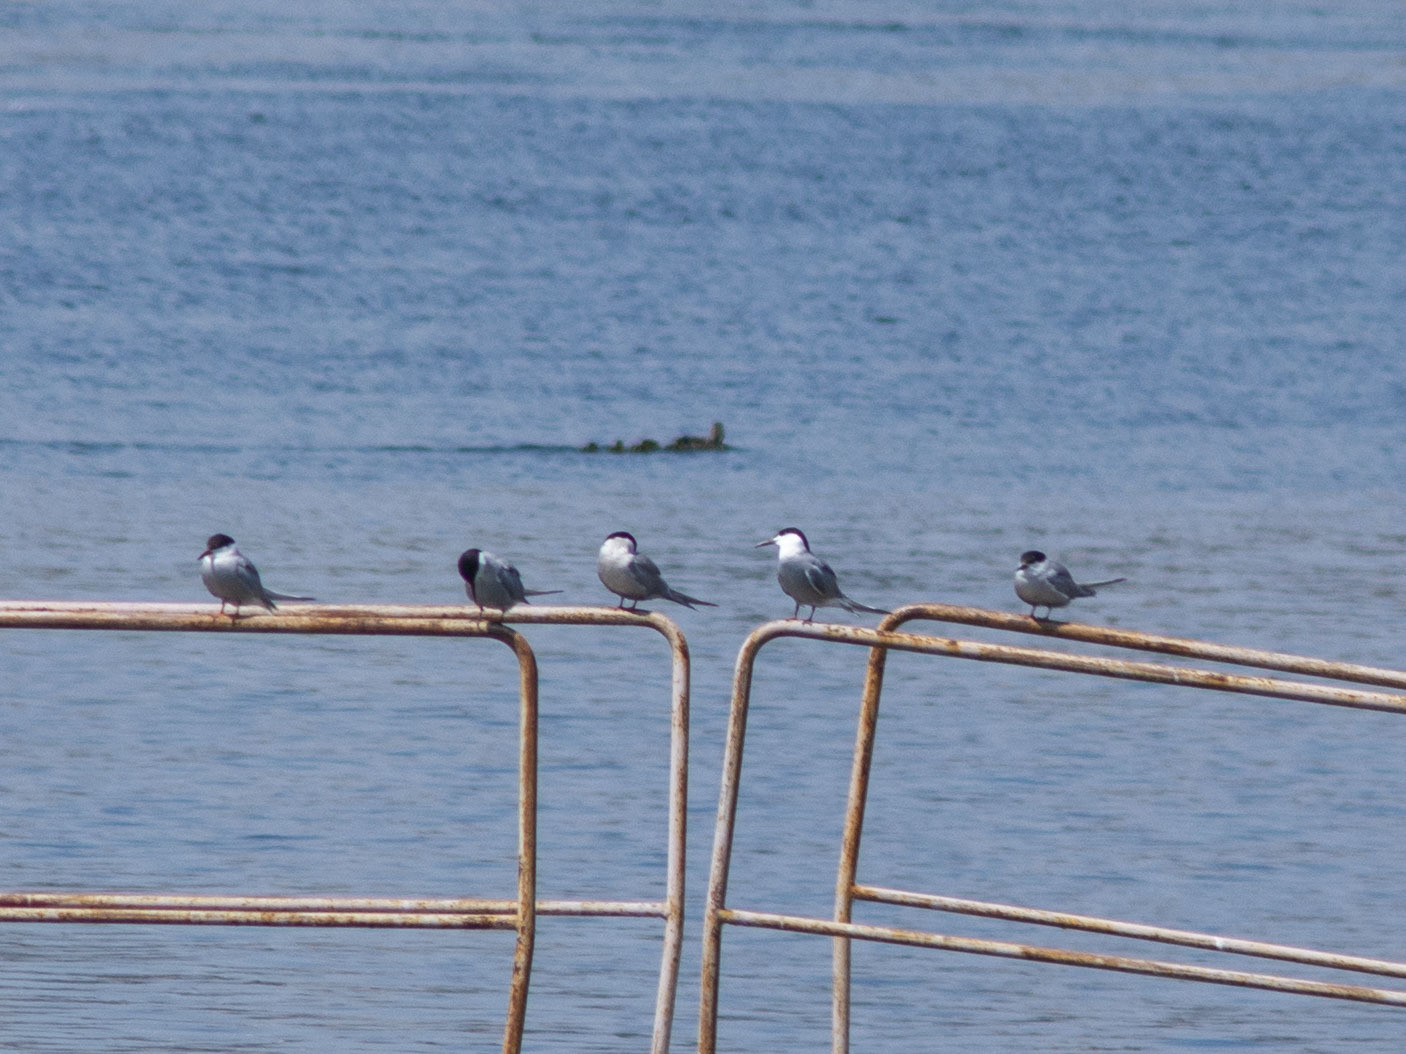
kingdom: Animalia
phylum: Chordata
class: Aves
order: Charadriiformes
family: Laridae
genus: Sterna
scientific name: Sterna hirundo
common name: Common tern
